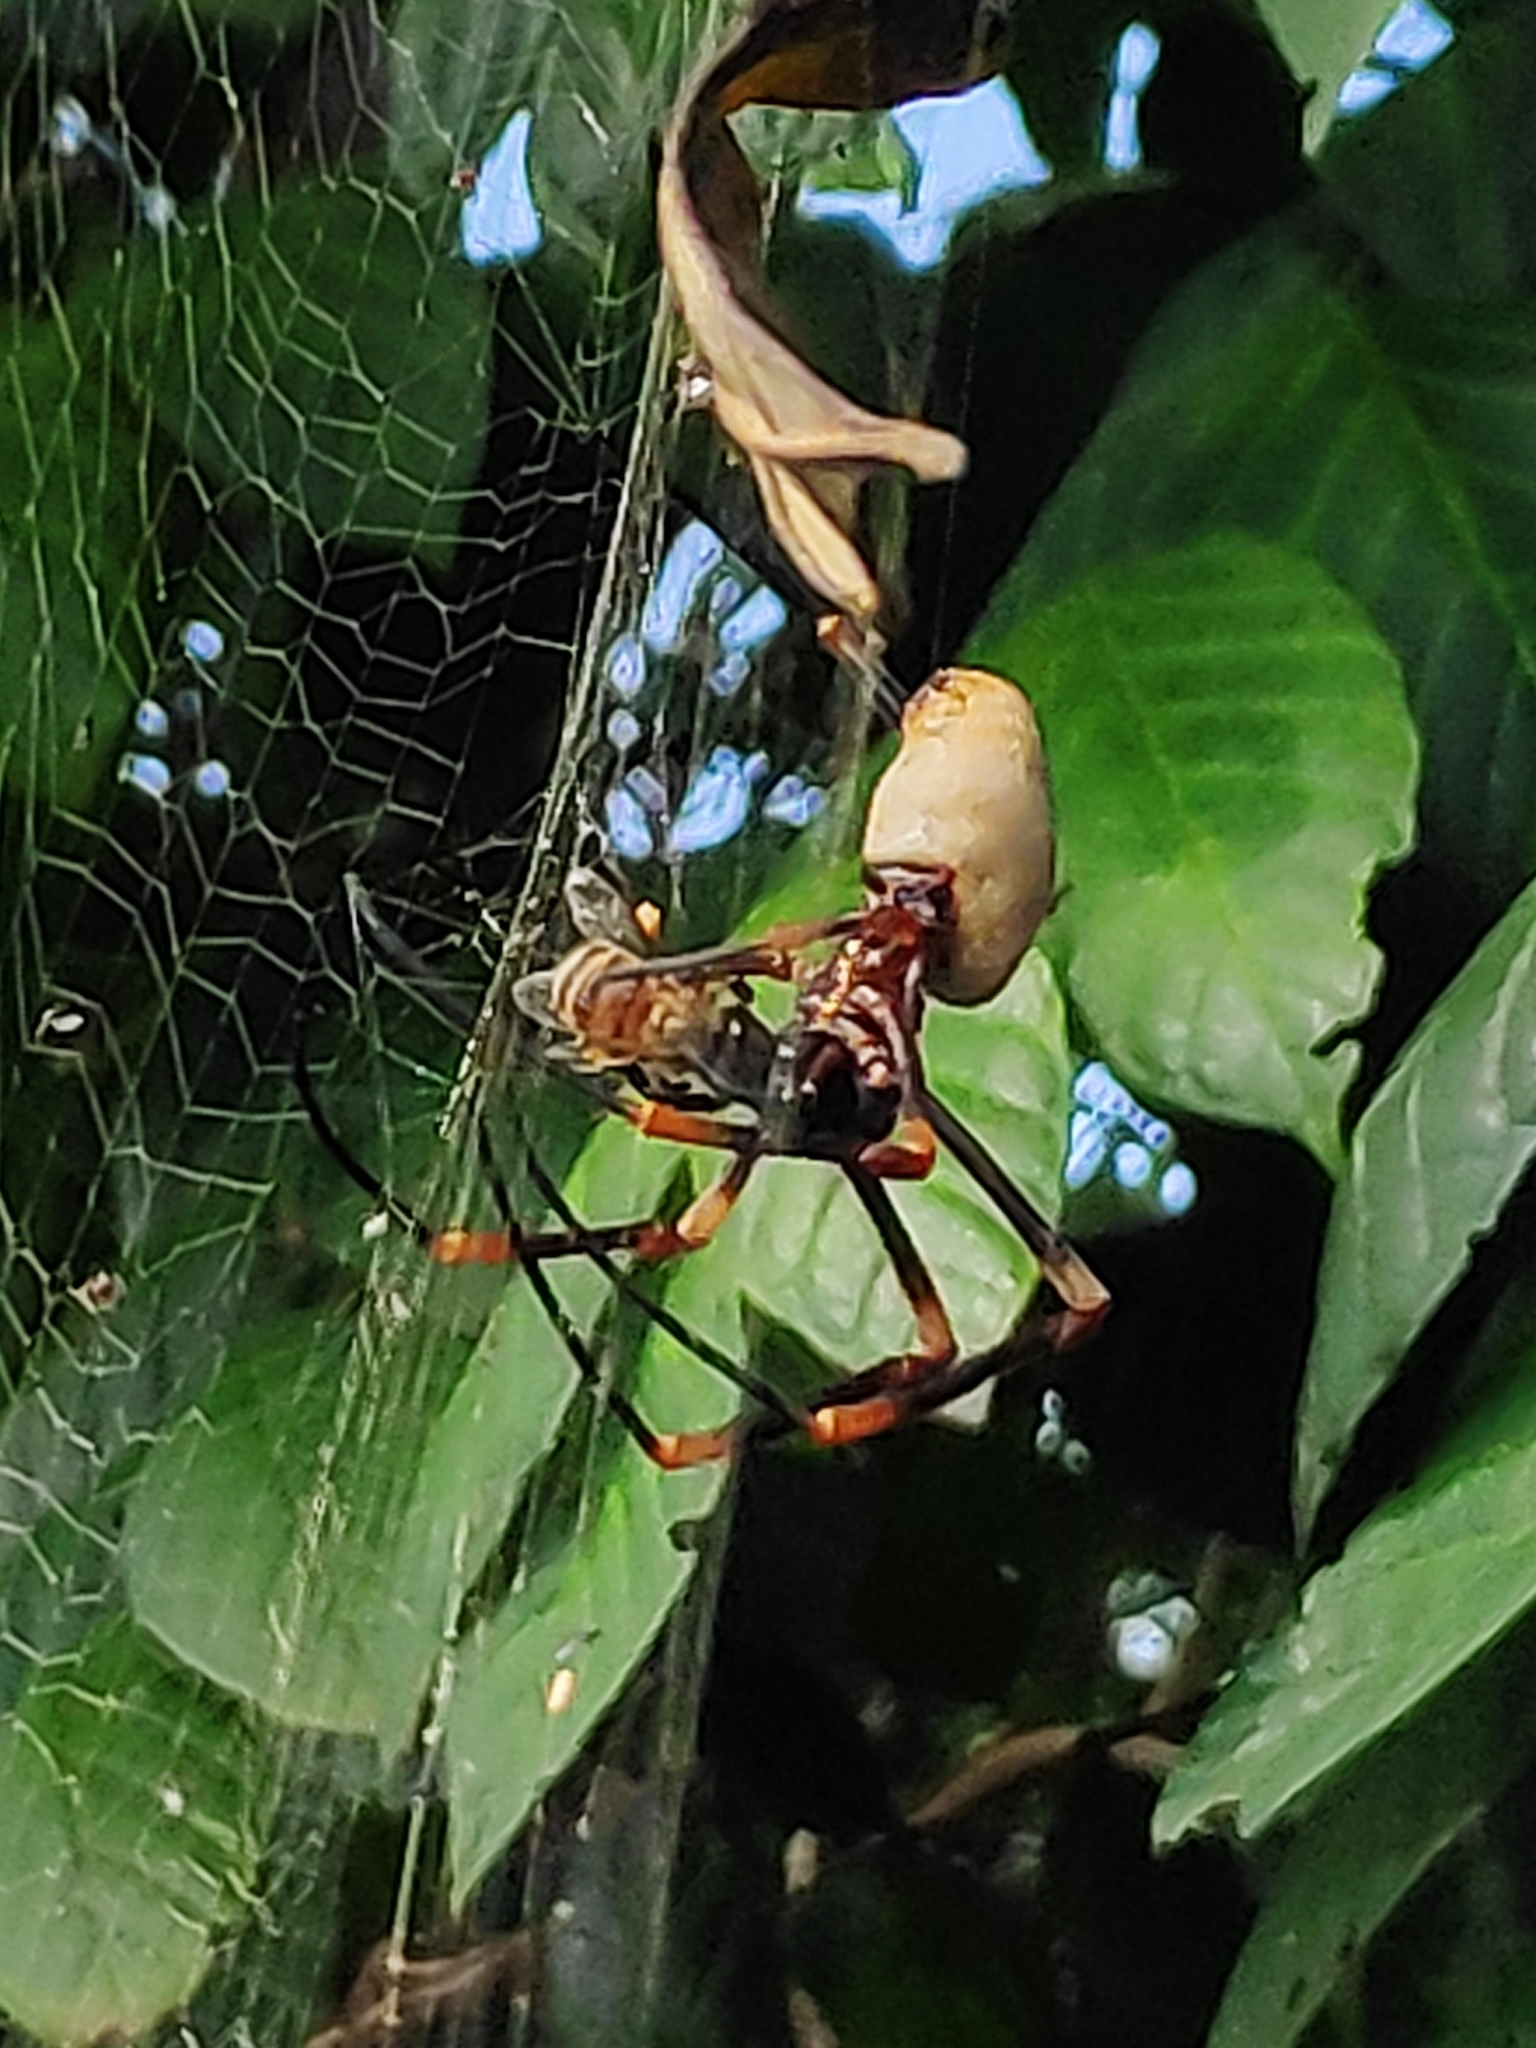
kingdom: Animalia
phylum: Arthropoda
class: Arachnida
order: Araneae
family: Araneidae
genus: Nephila
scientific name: Nephila tetragnathoides
